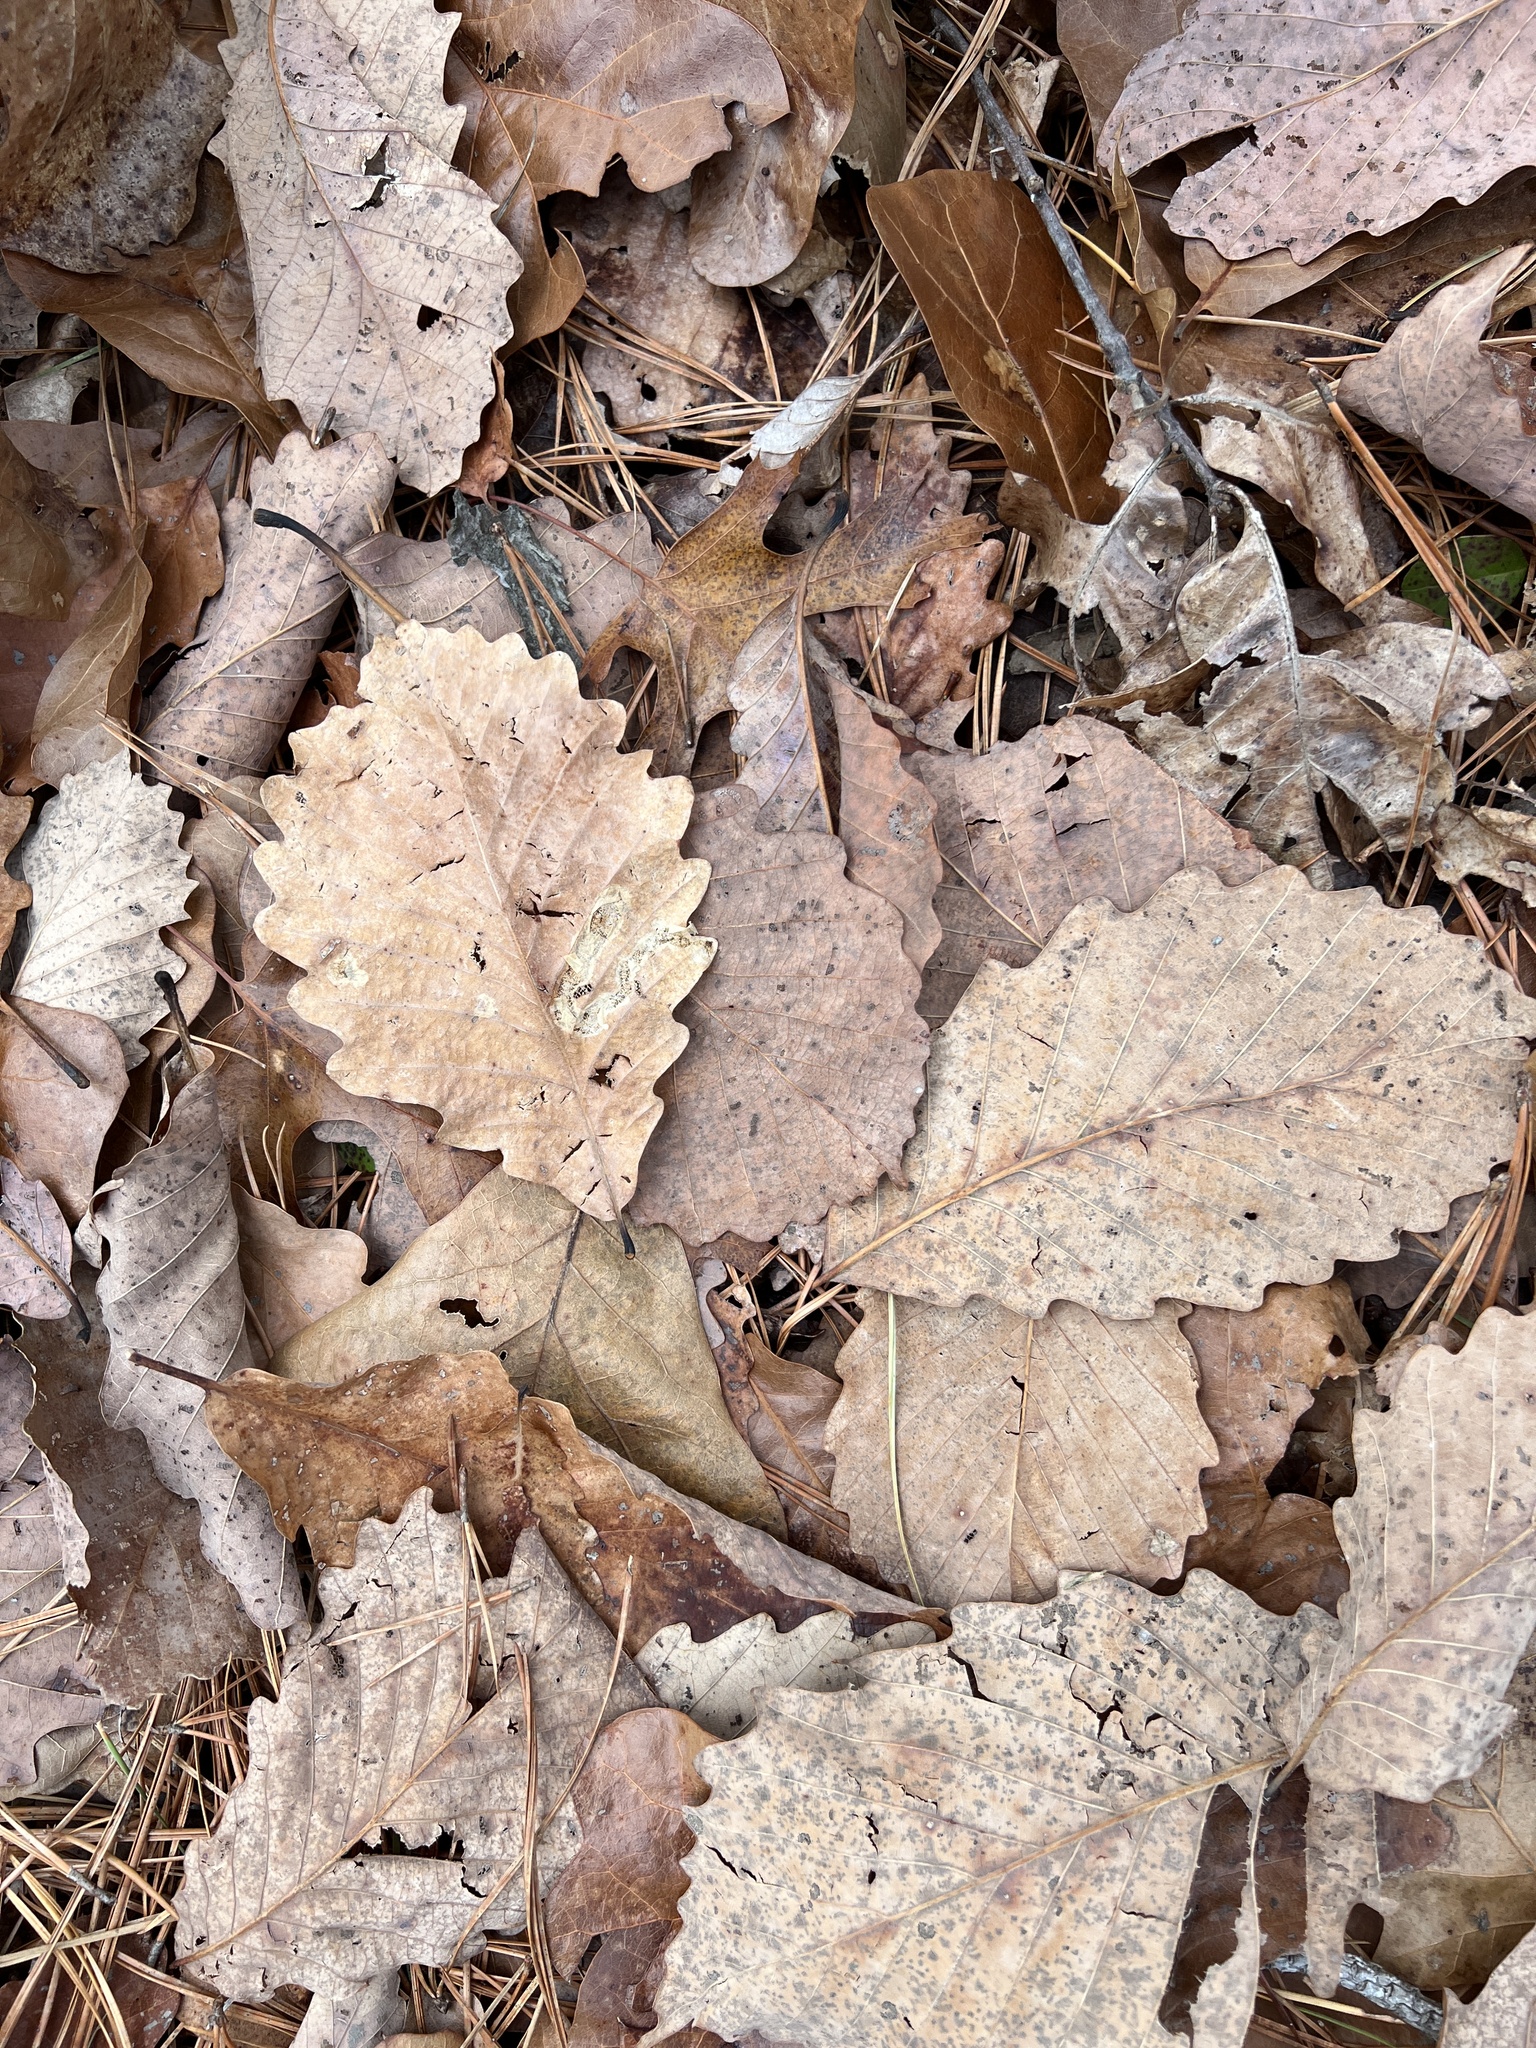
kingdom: Plantae
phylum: Tracheophyta
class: Magnoliopsida
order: Fagales
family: Fagaceae
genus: Quercus
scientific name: Quercus montana
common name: Chestnut oak
